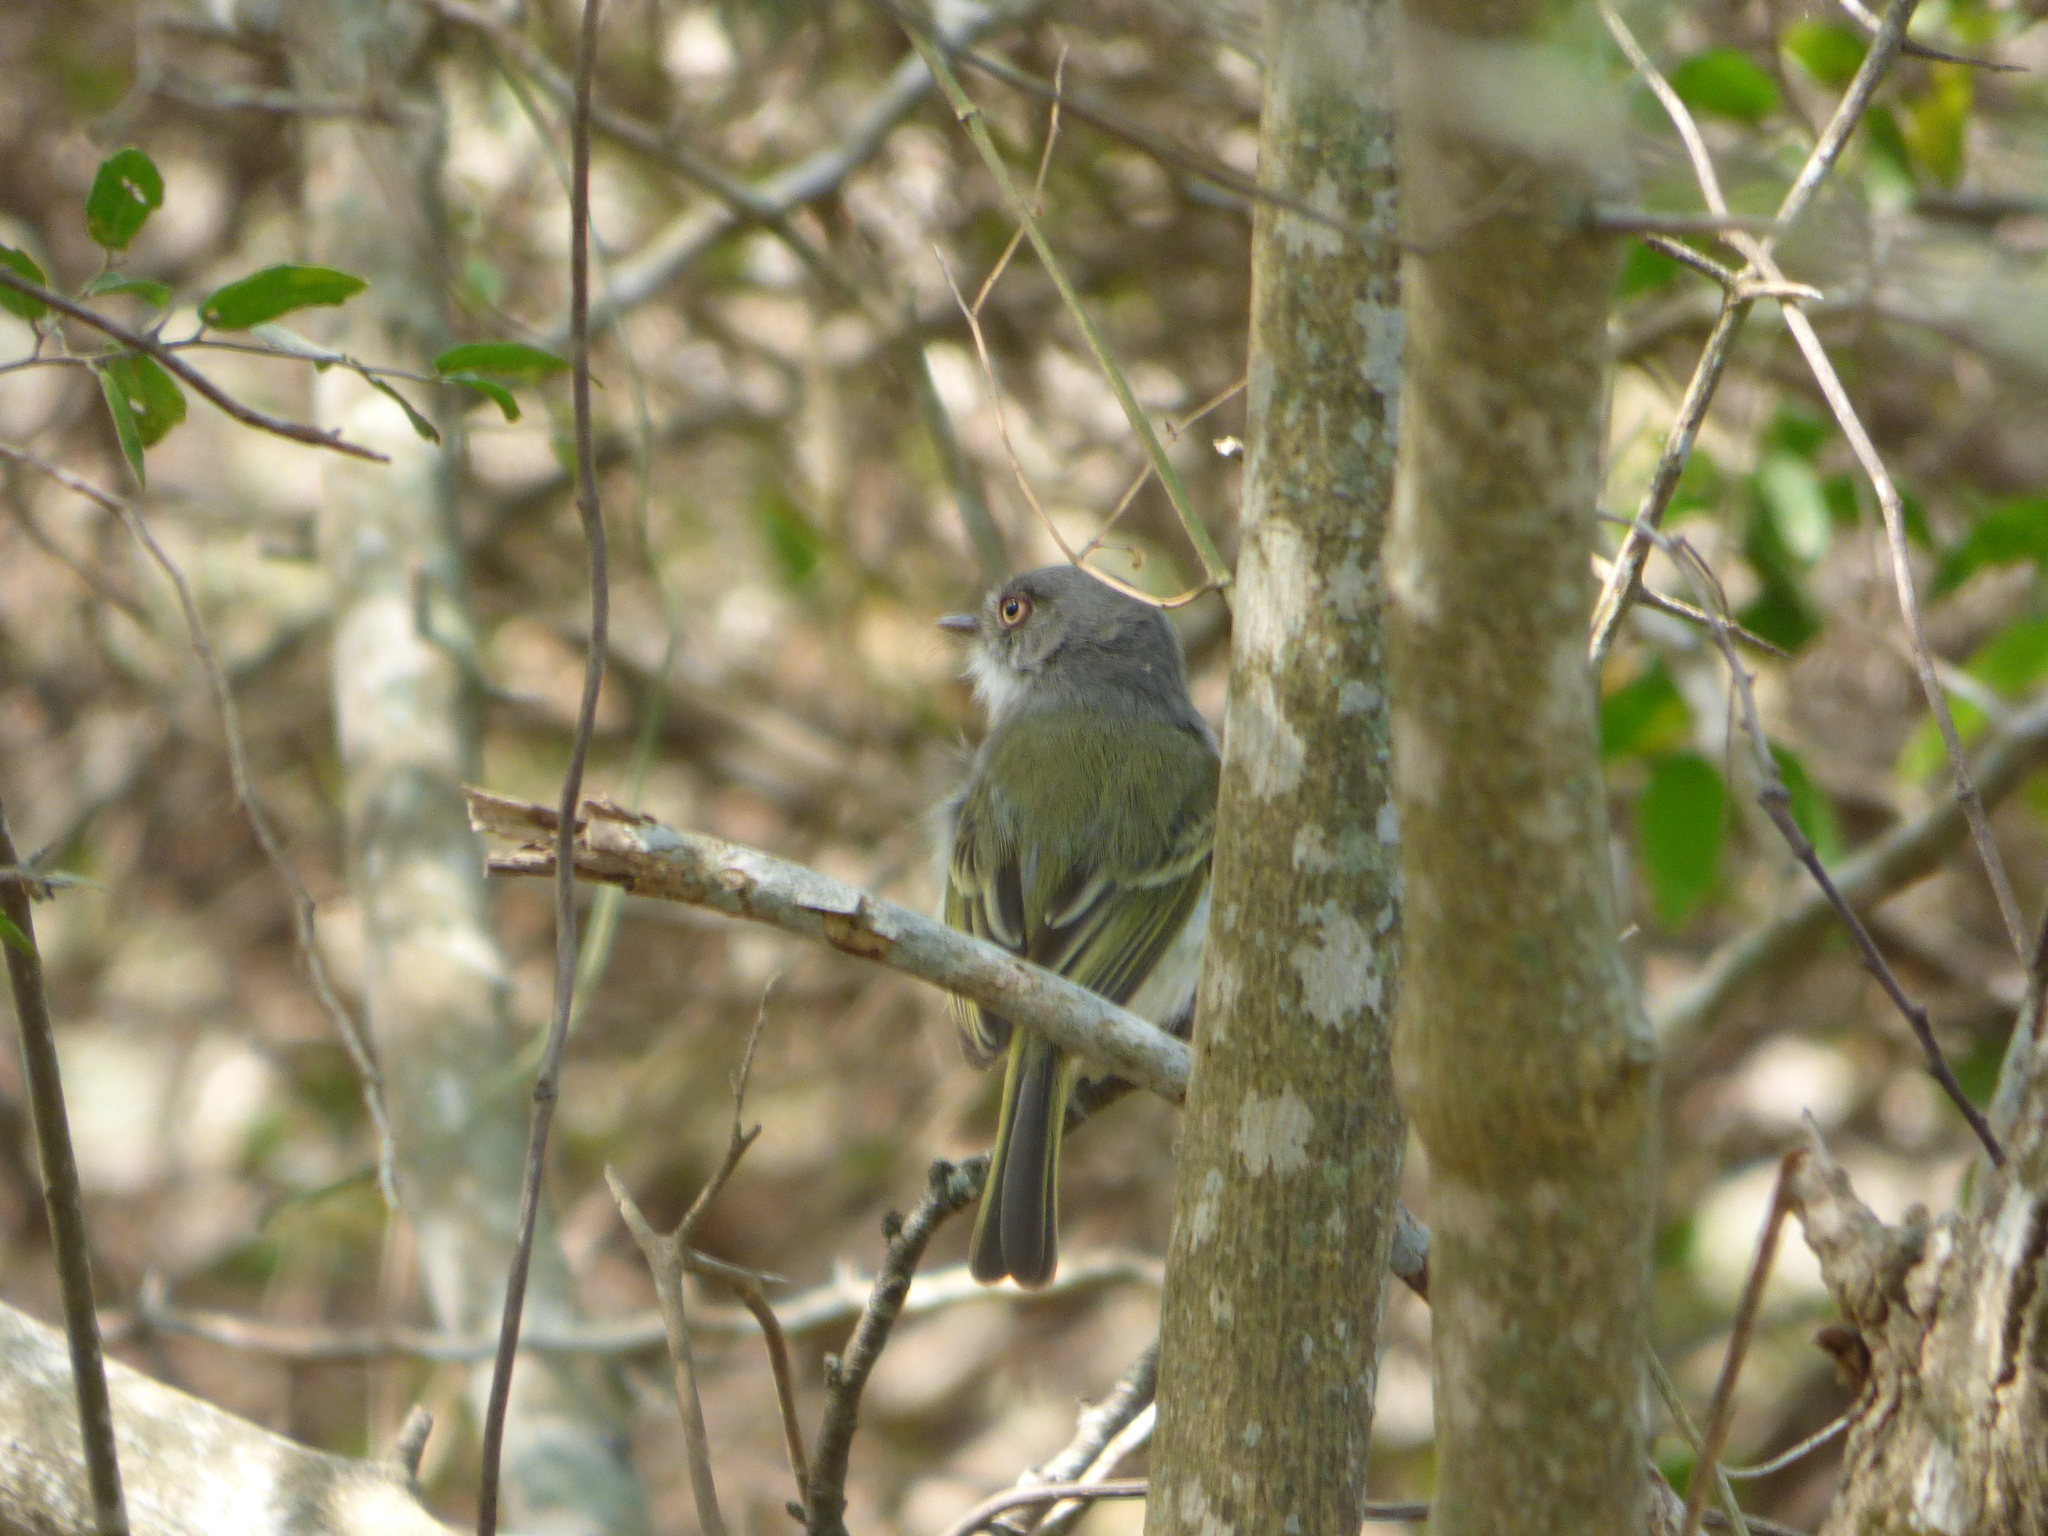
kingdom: Animalia
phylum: Chordata
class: Aves
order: Passeriformes
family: Tyrannidae
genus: Hemitriccus
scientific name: Hemitriccus margaritaceiventer
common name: Pearly-vented tody-tyrant
